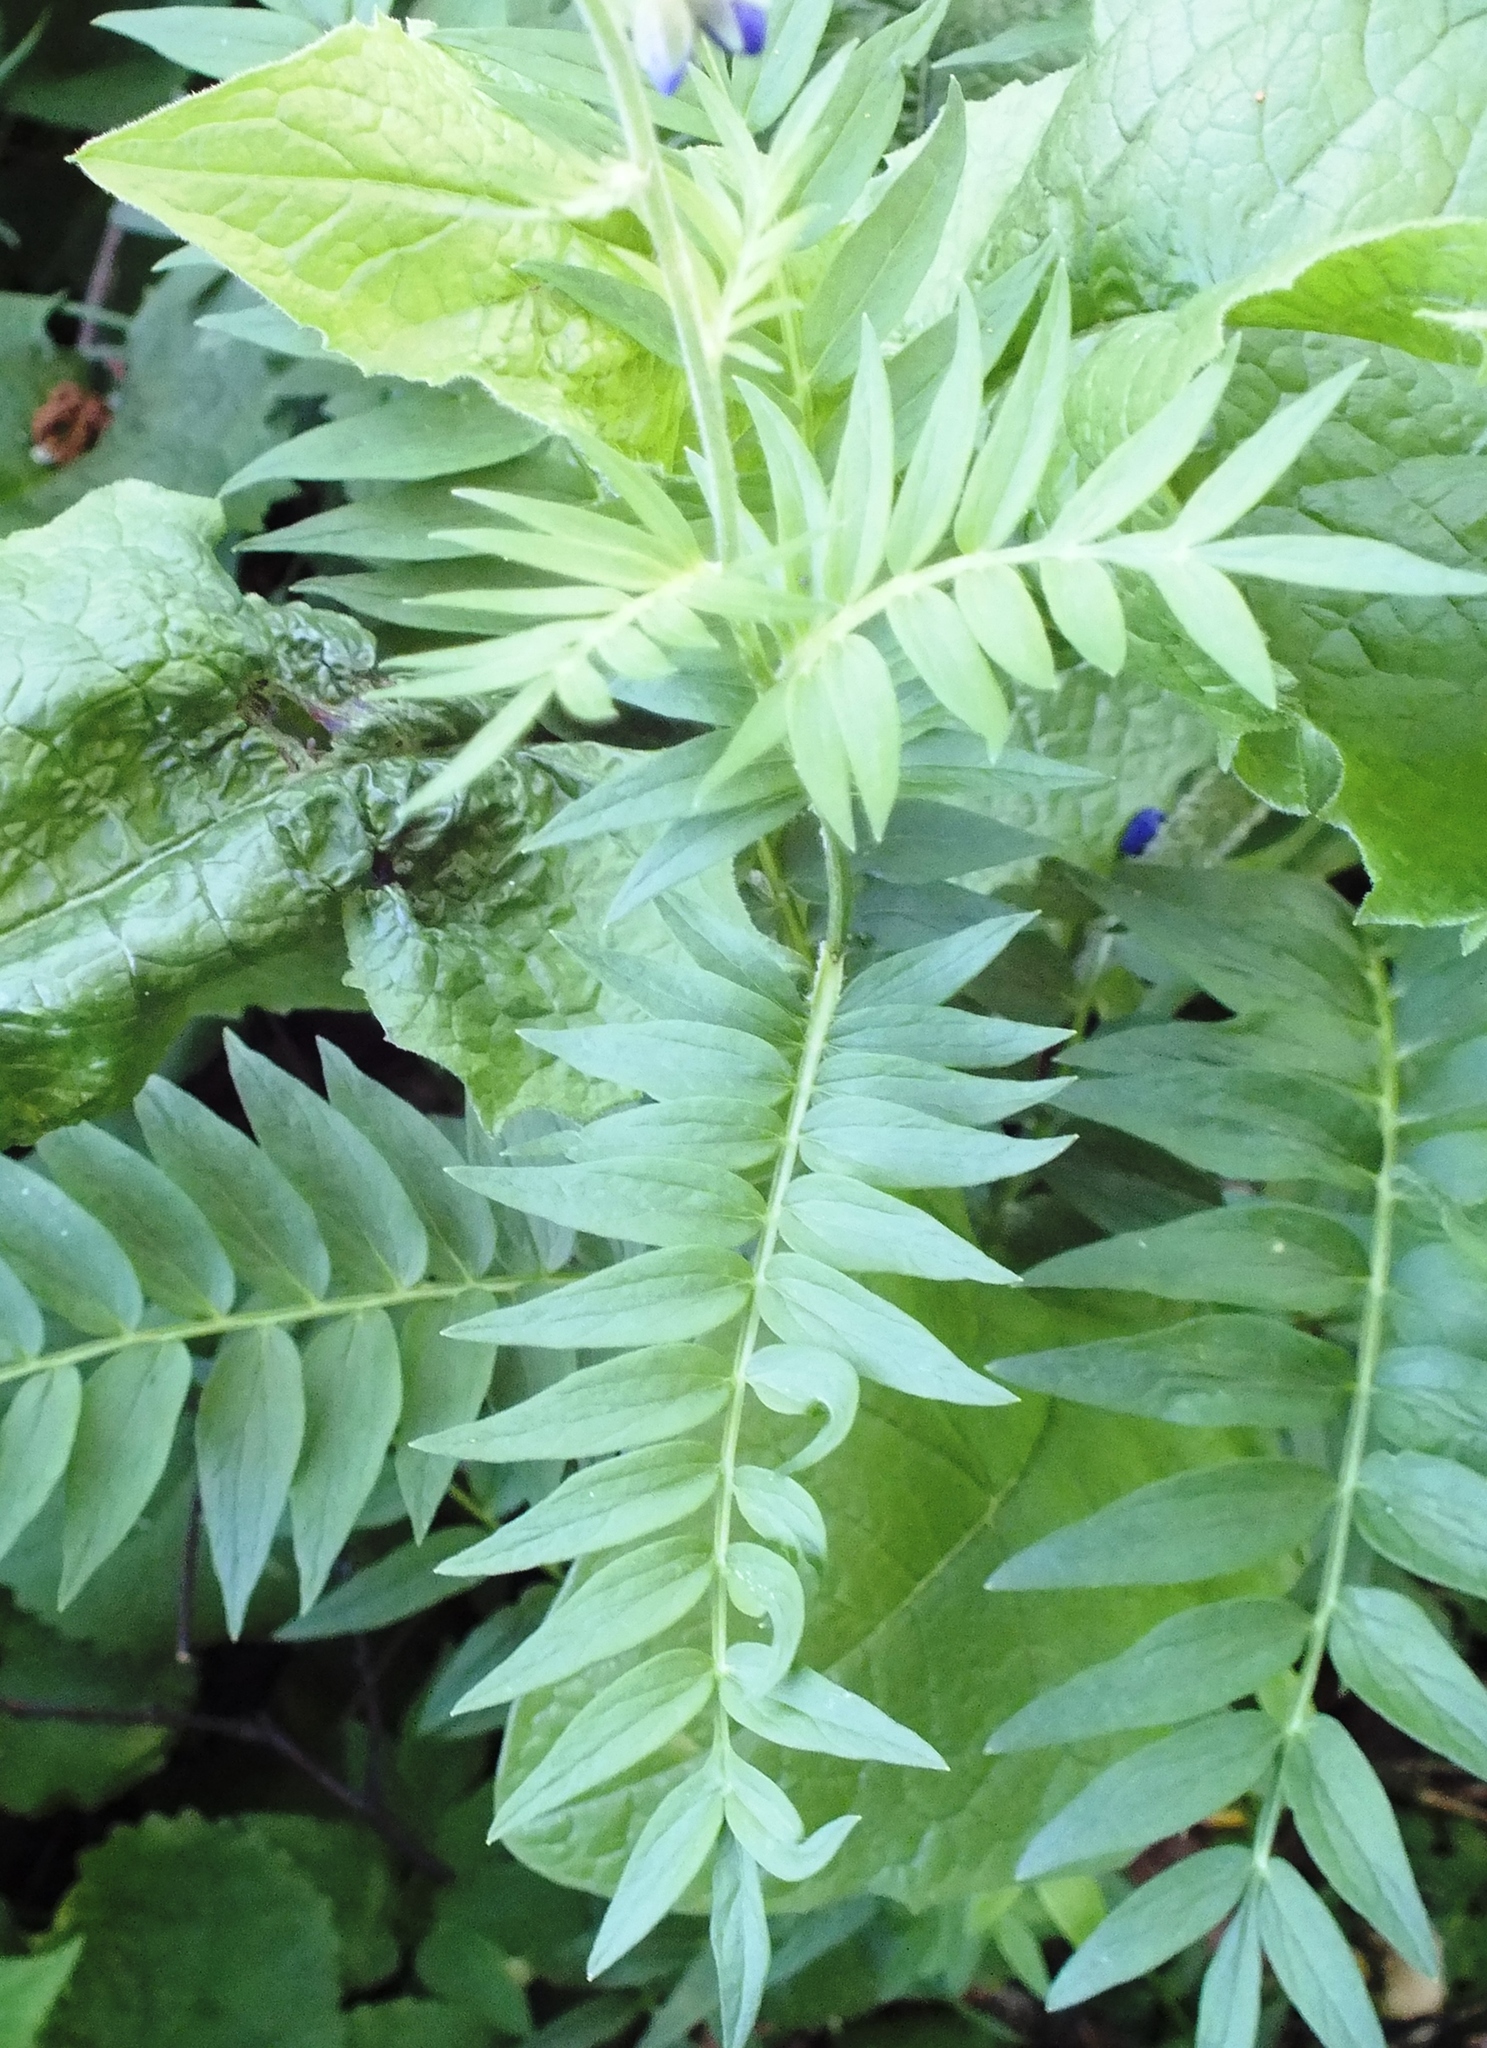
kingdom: Plantae
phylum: Tracheophyta
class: Magnoliopsida
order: Ericales
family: Polemoniaceae
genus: Polemonium
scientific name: Polemonium caeruleum
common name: Jacob's-ladder
